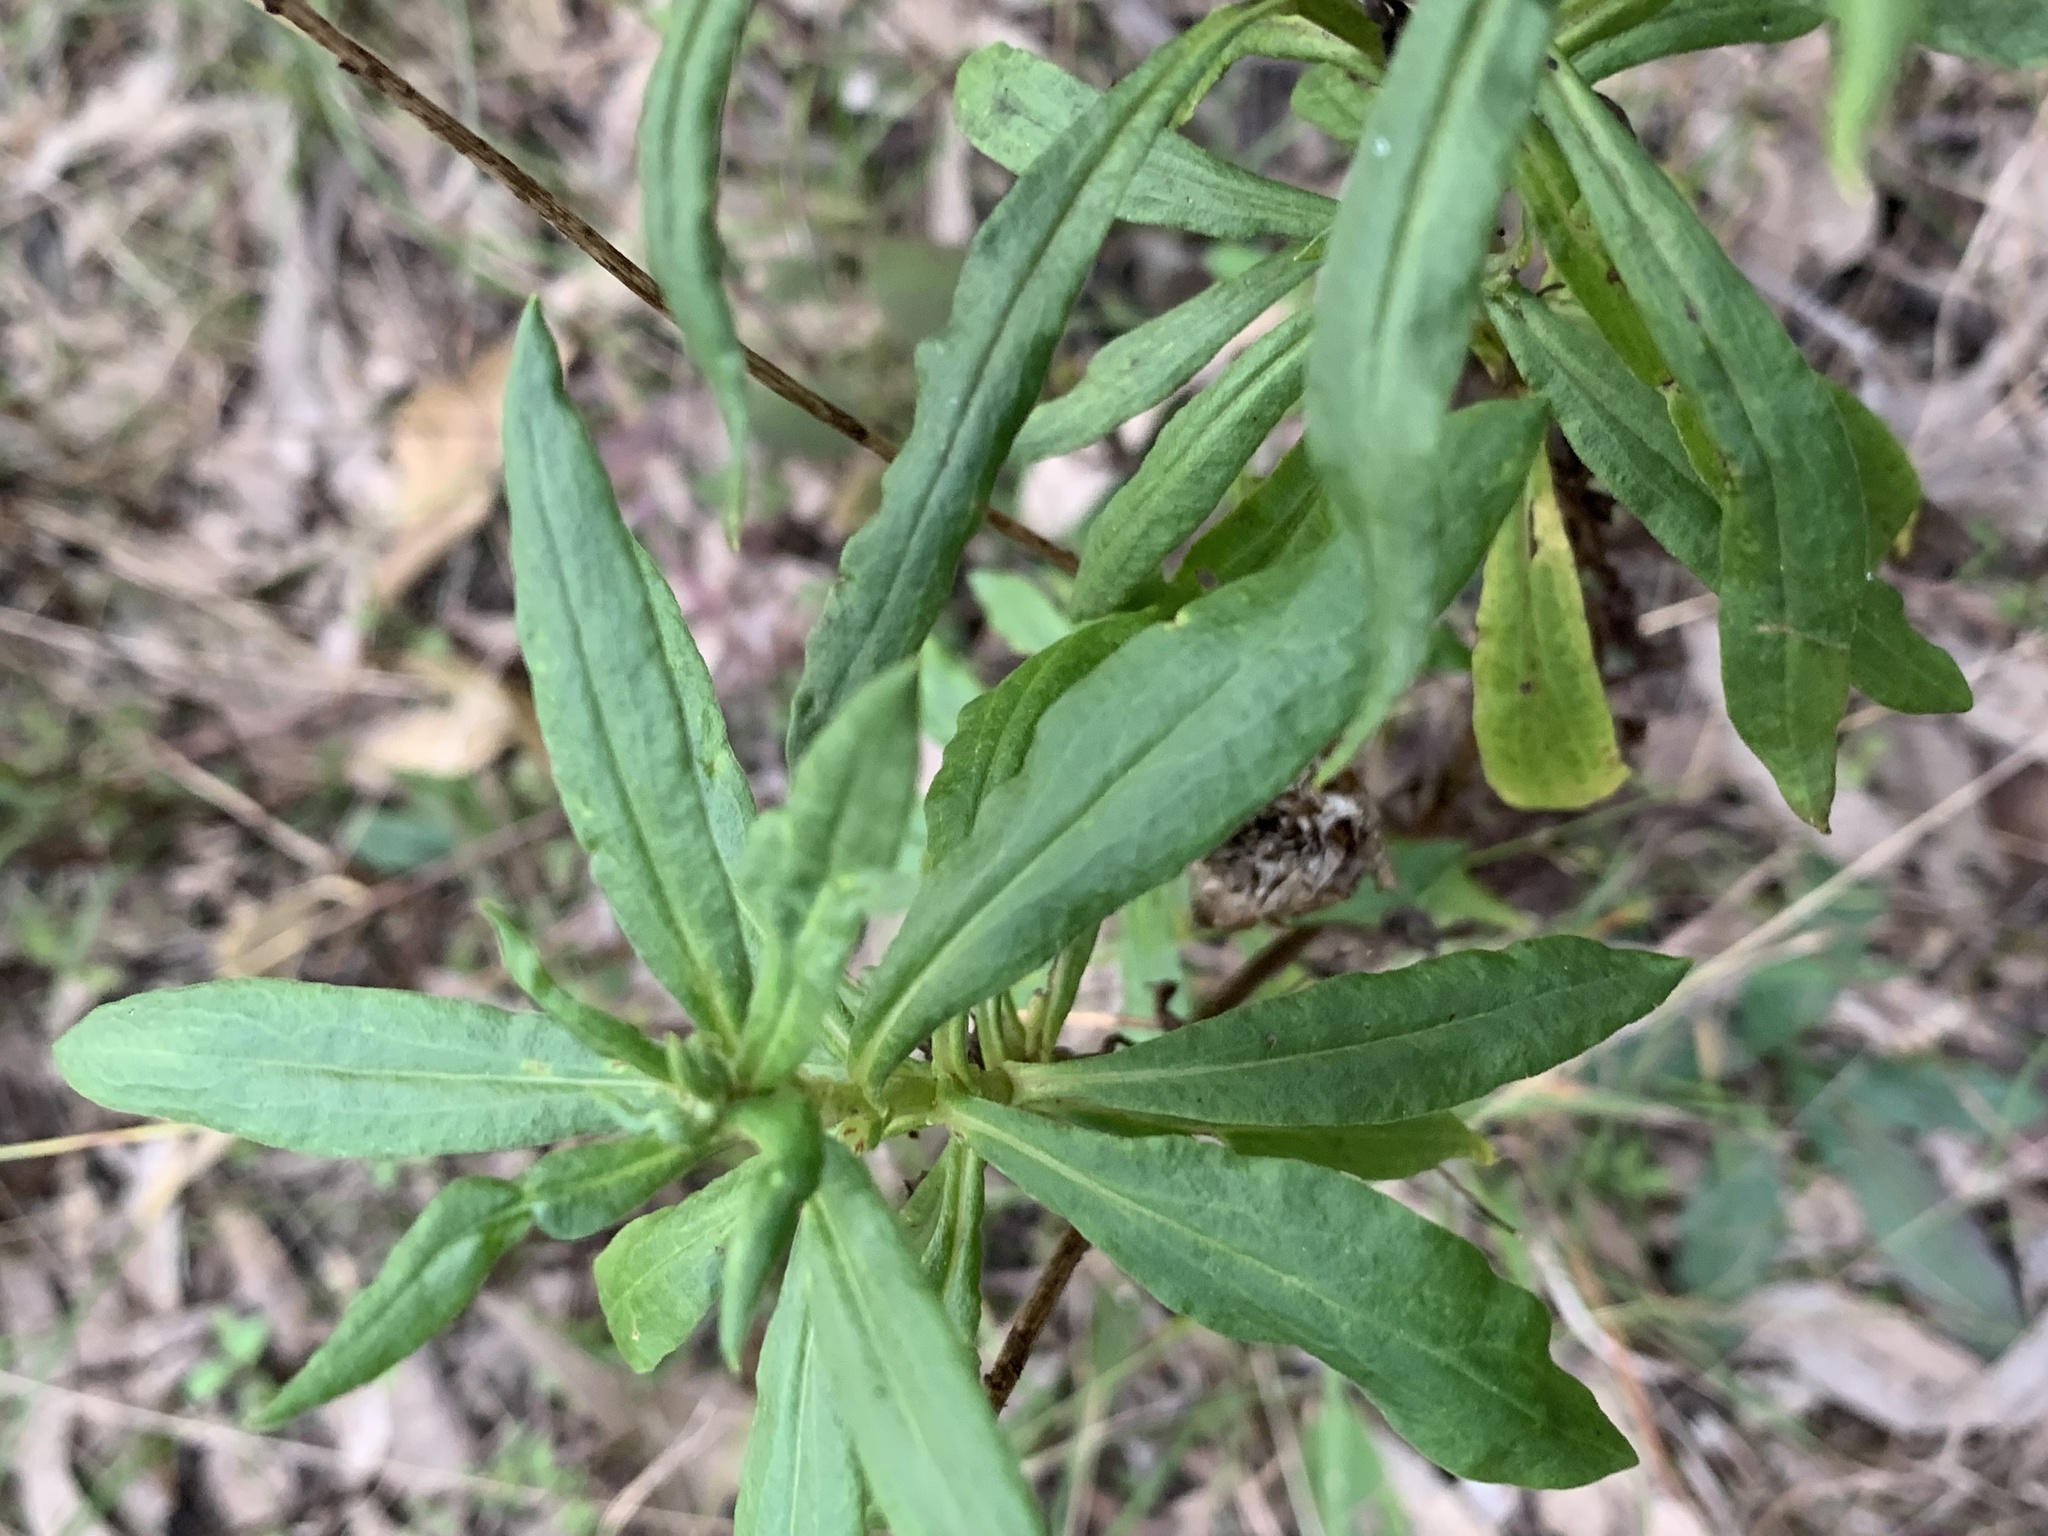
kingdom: Plantae
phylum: Tracheophyta
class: Magnoliopsida
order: Asterales
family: Asteraceae
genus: Xerochrysum
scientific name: Xerochrysum bracteatum
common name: Bracted strawflower
